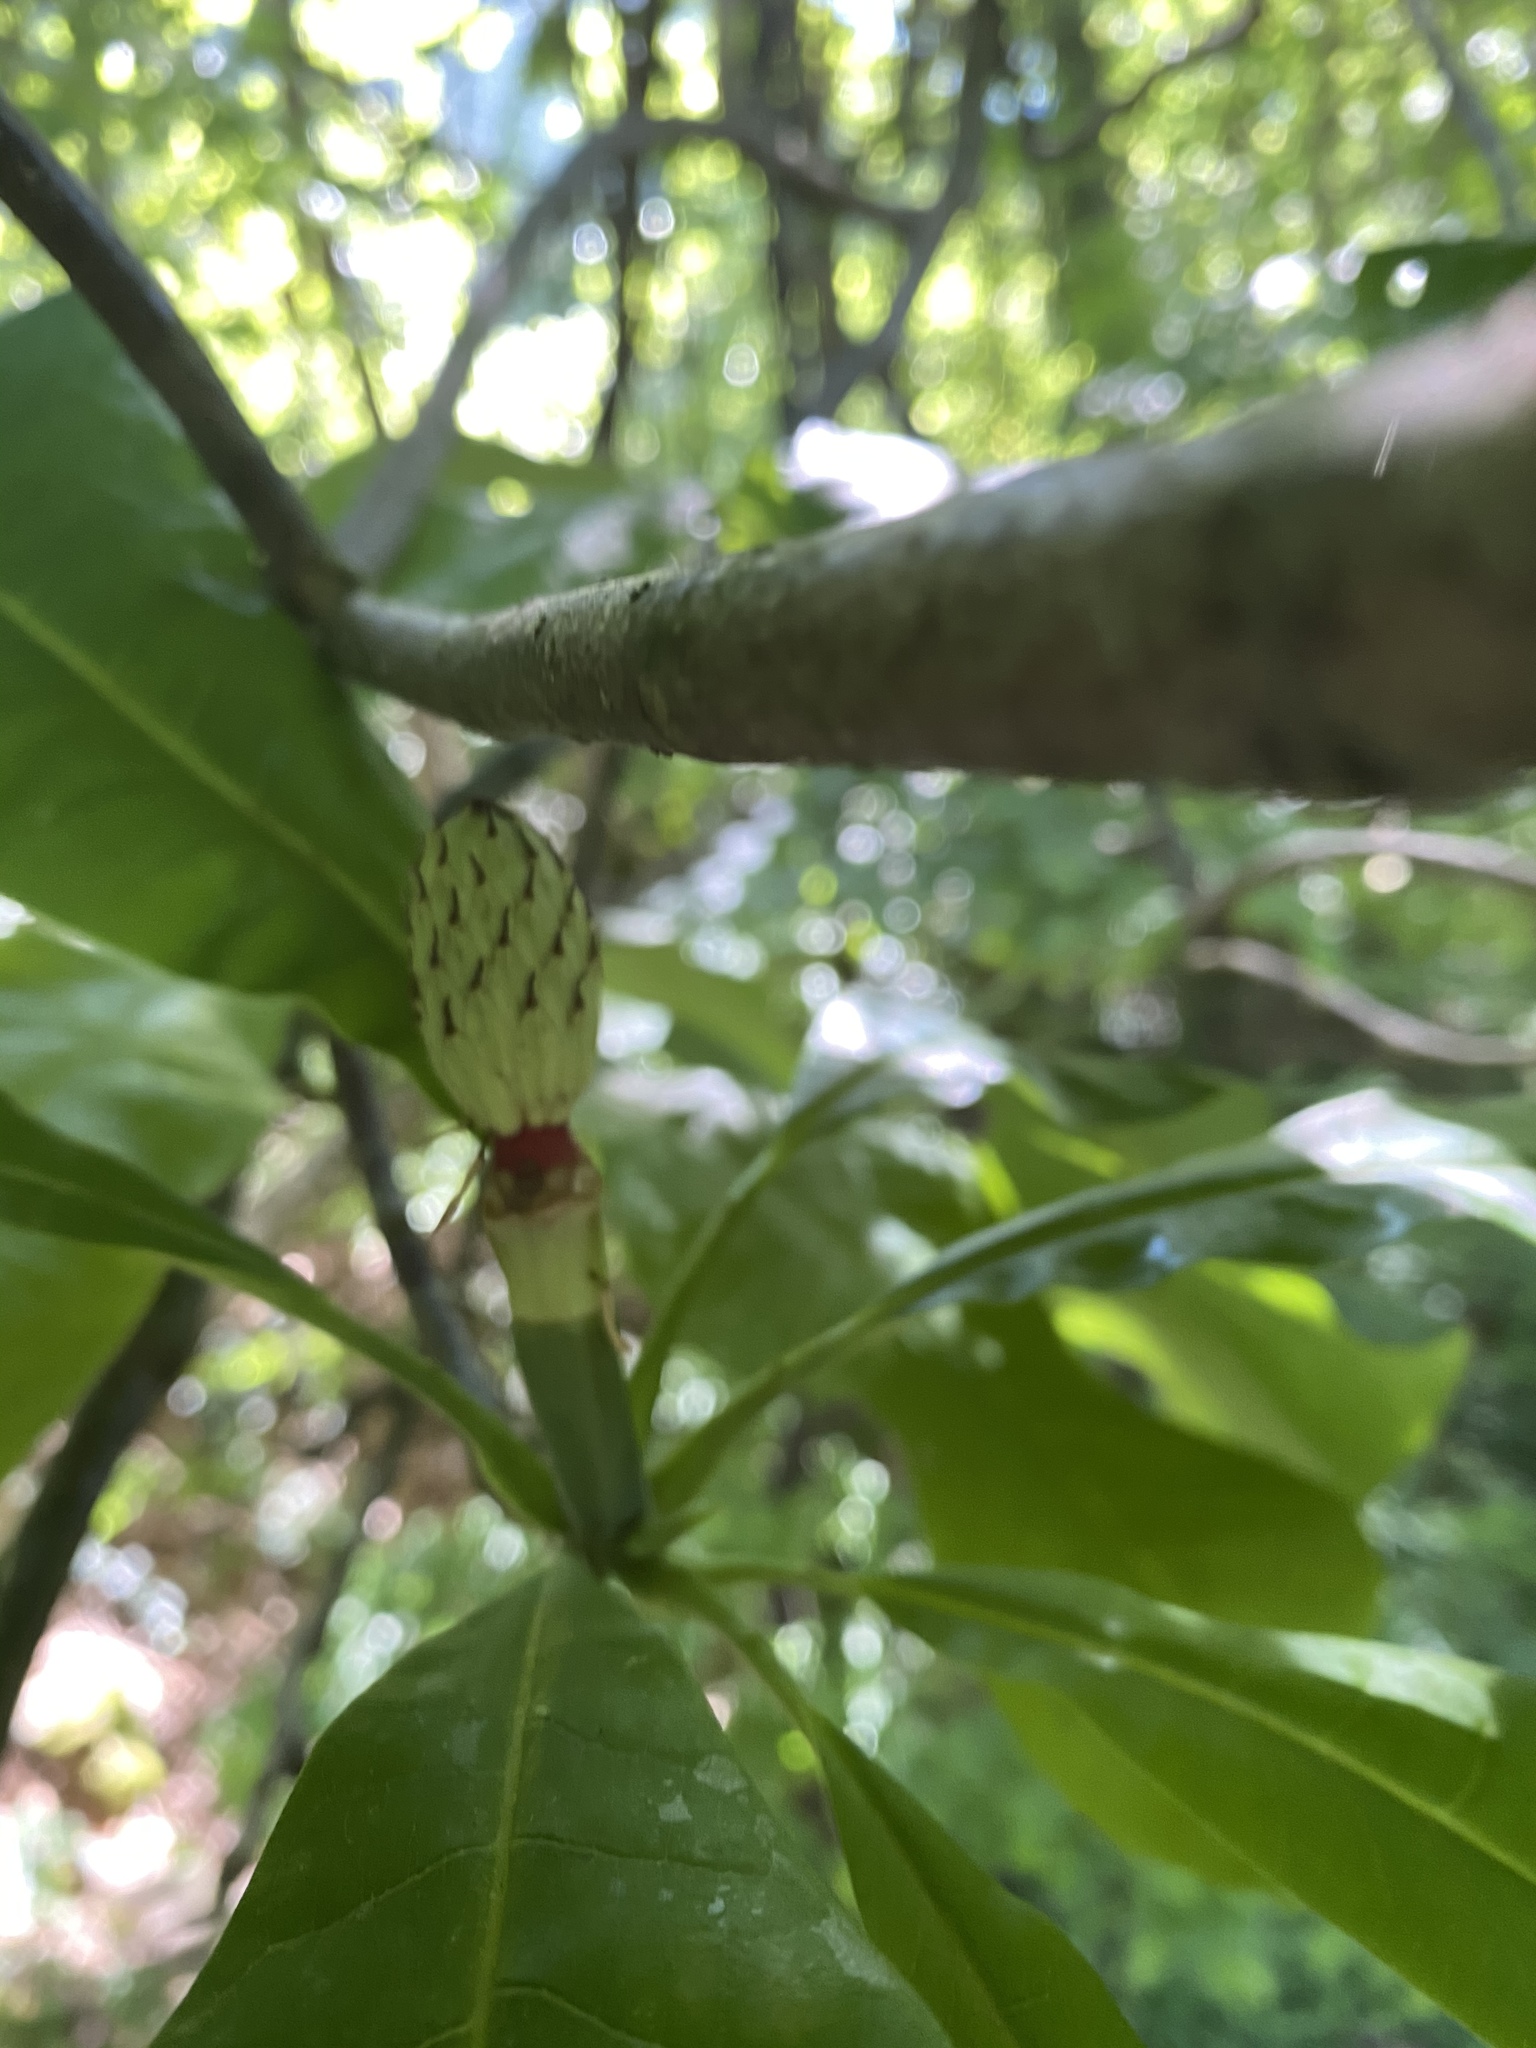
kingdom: Plantae
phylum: Tracheophyta
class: Magnoliopsida
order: Magnoliales
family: Magnoliaceae
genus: Magnolia
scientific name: Magnolia tripetala
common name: Umbrella magnolia
